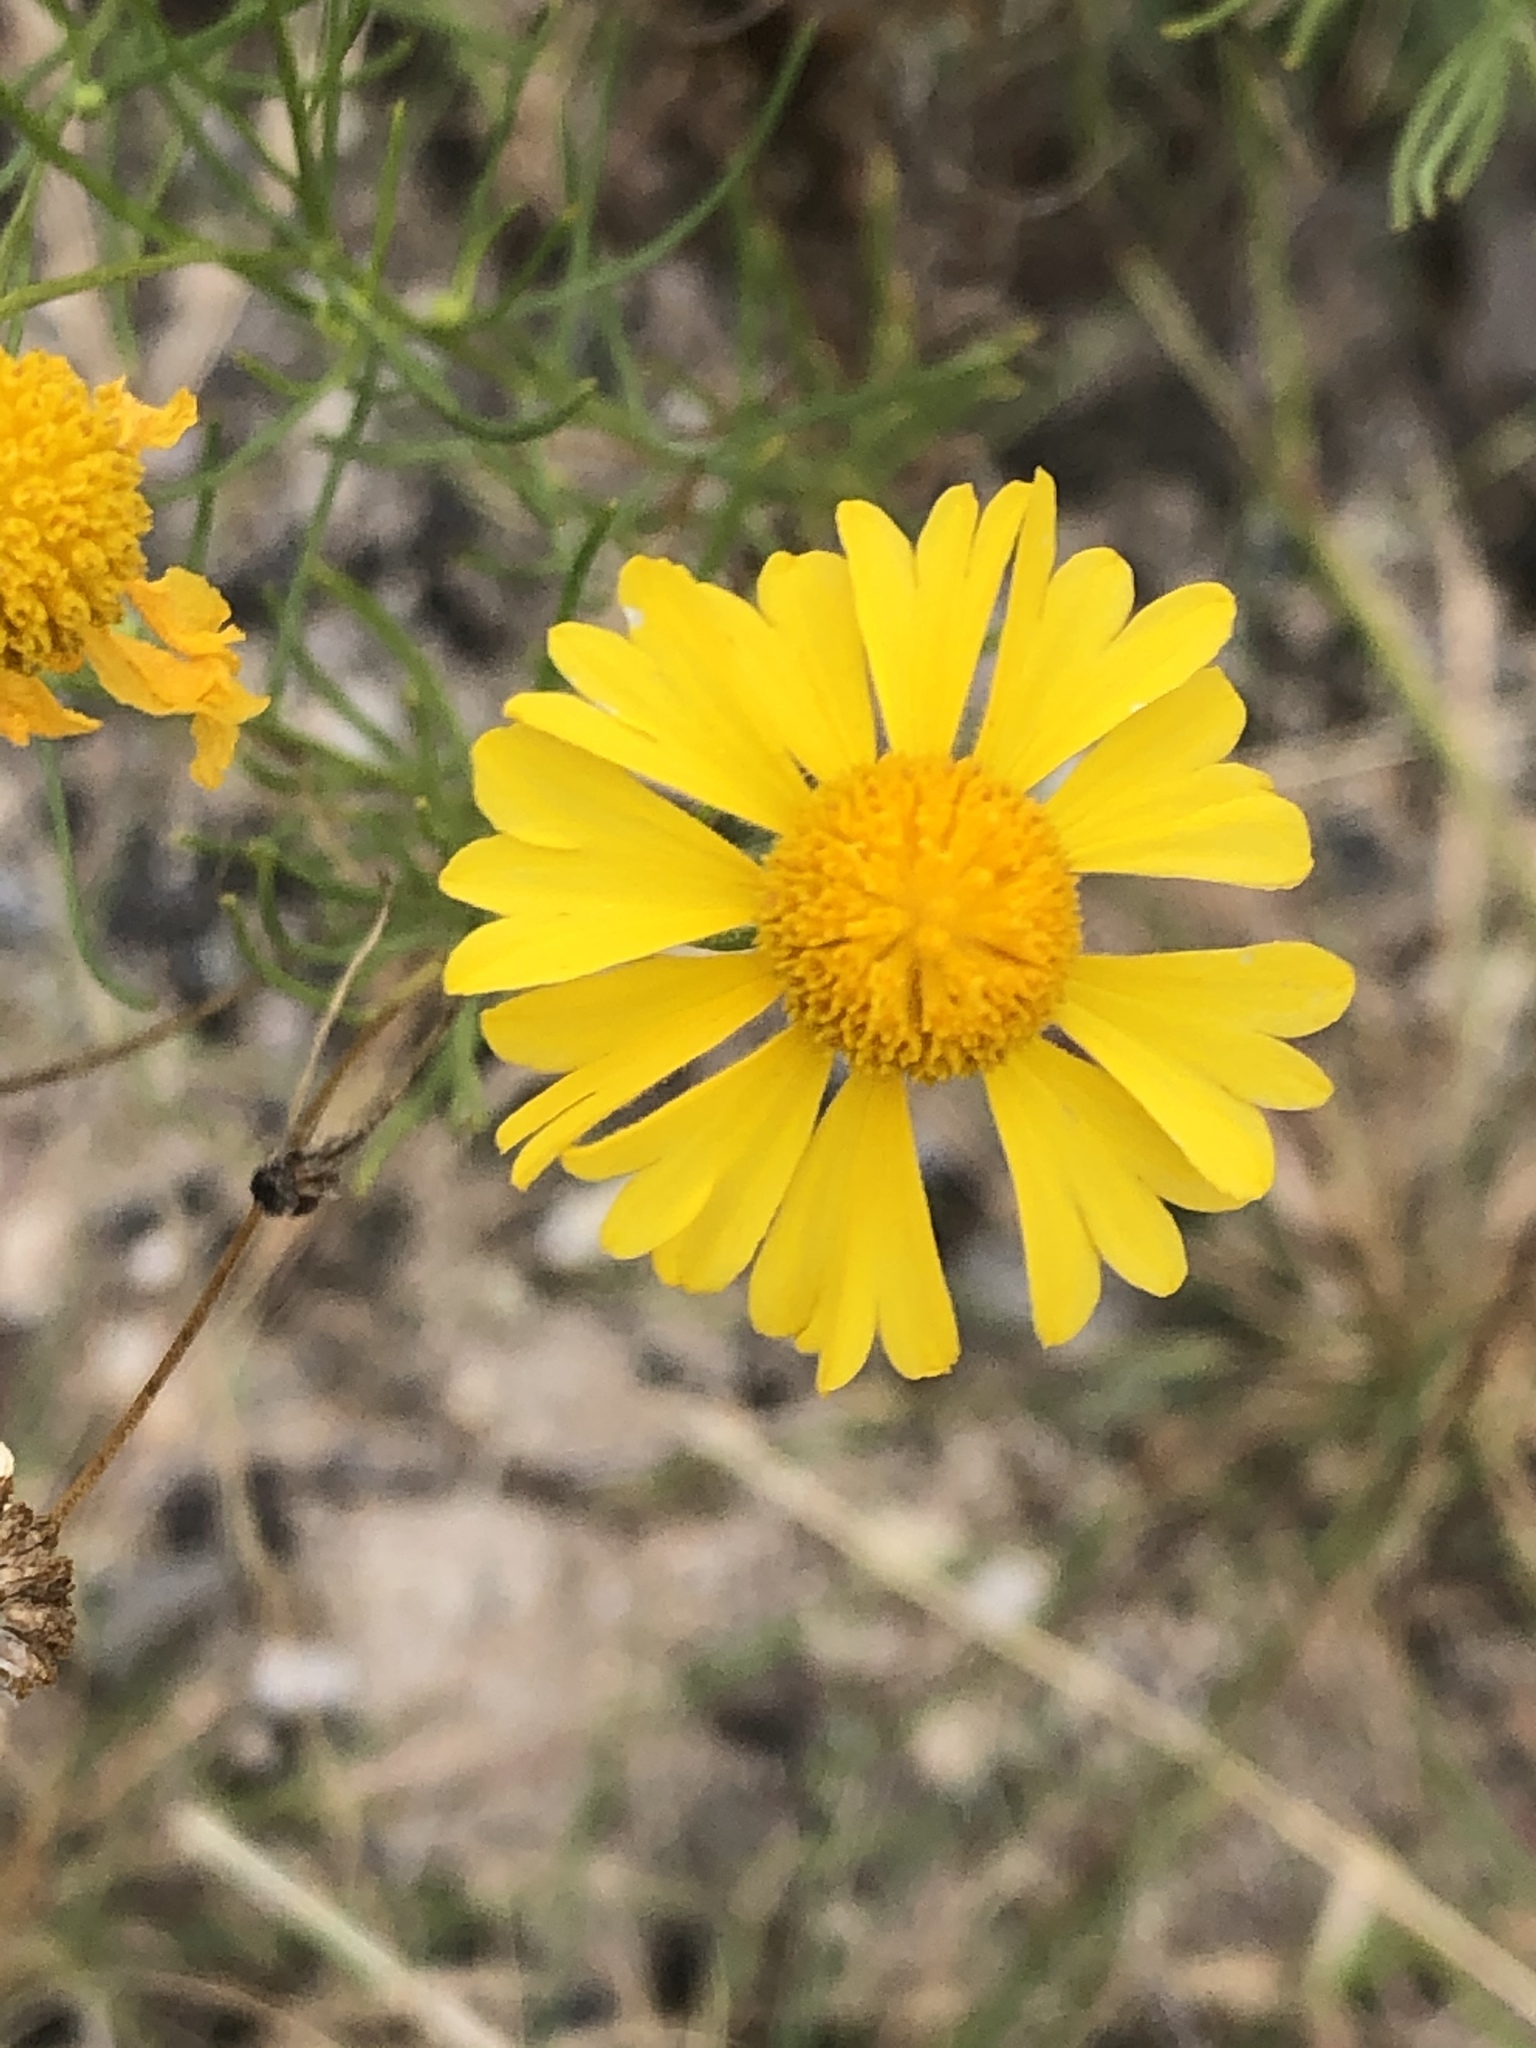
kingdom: Plantae
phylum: Tracheophyta
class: Magnoliopsida
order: Asterales
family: Asteraceae
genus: Helenium
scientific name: Helenium amarum
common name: Bitter sneezeweed
